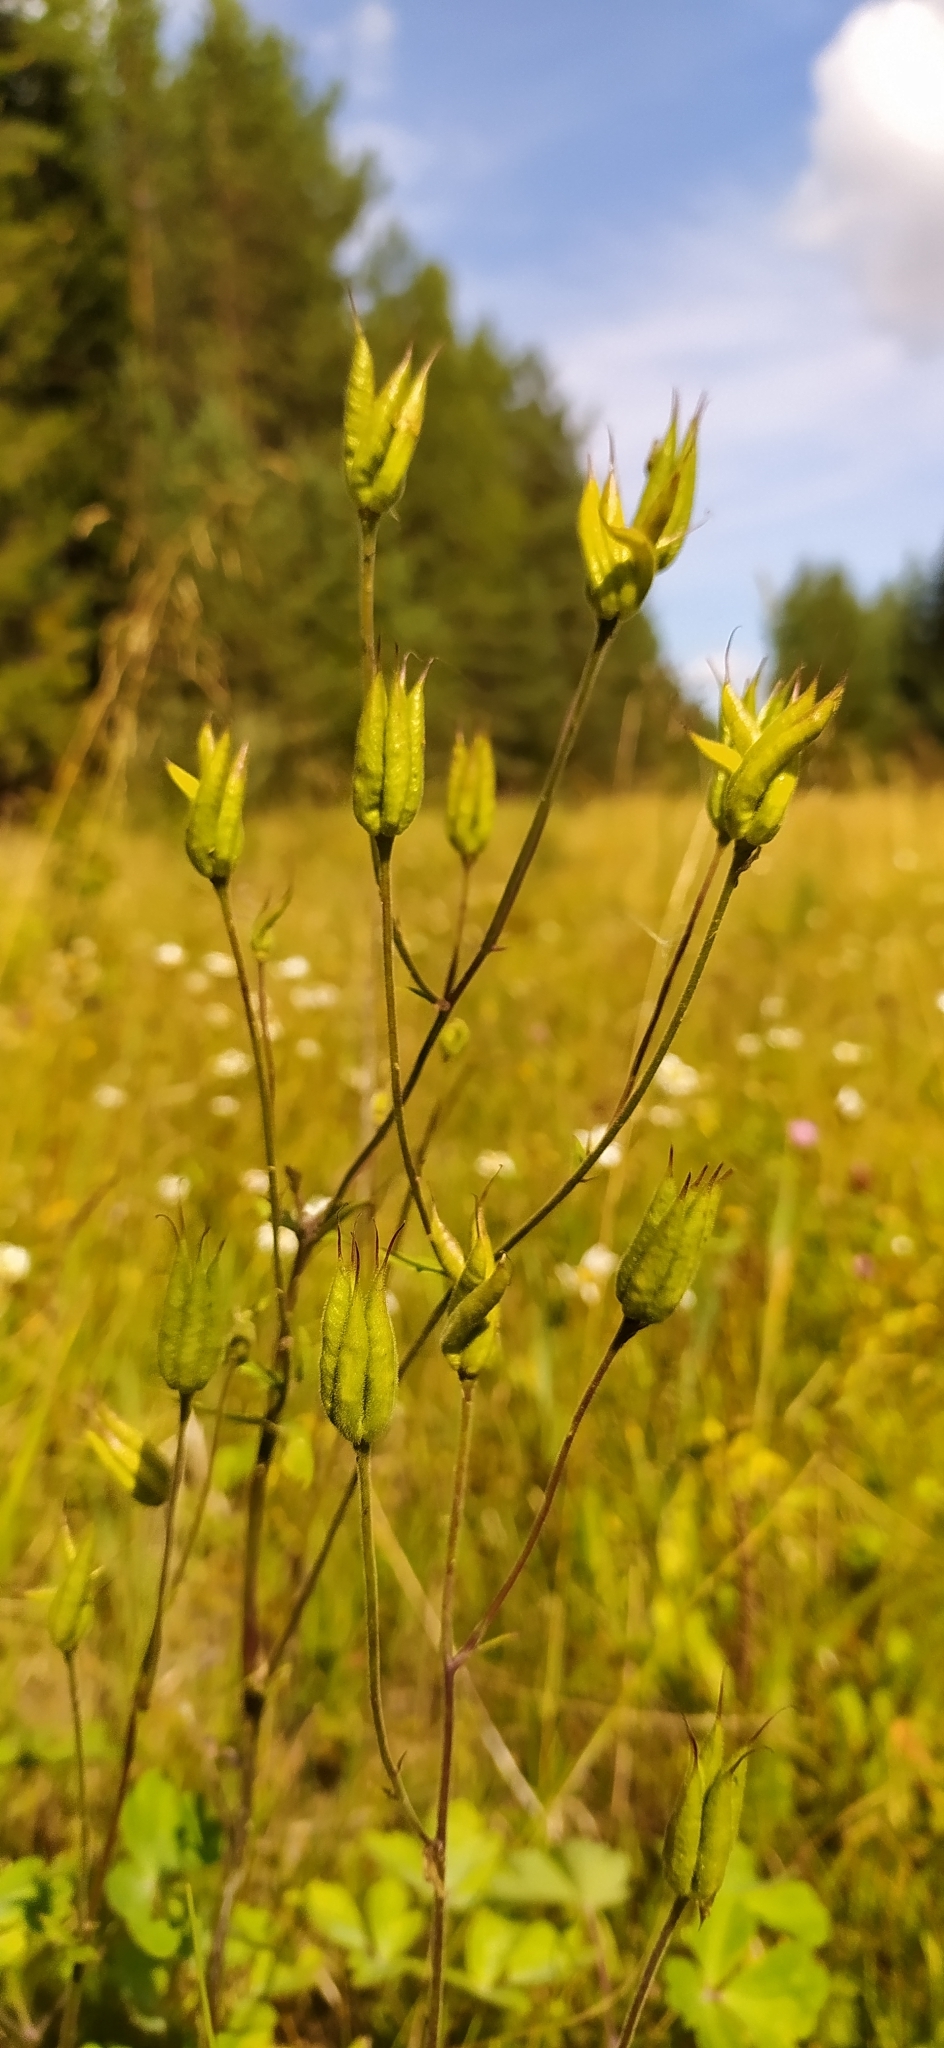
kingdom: Plantae
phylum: Tracheophyta
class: Magnoliopsida
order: Ranunculales
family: Ranunculaceae
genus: Aquilegia
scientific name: Aquilegia vulgaris
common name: Columbine
